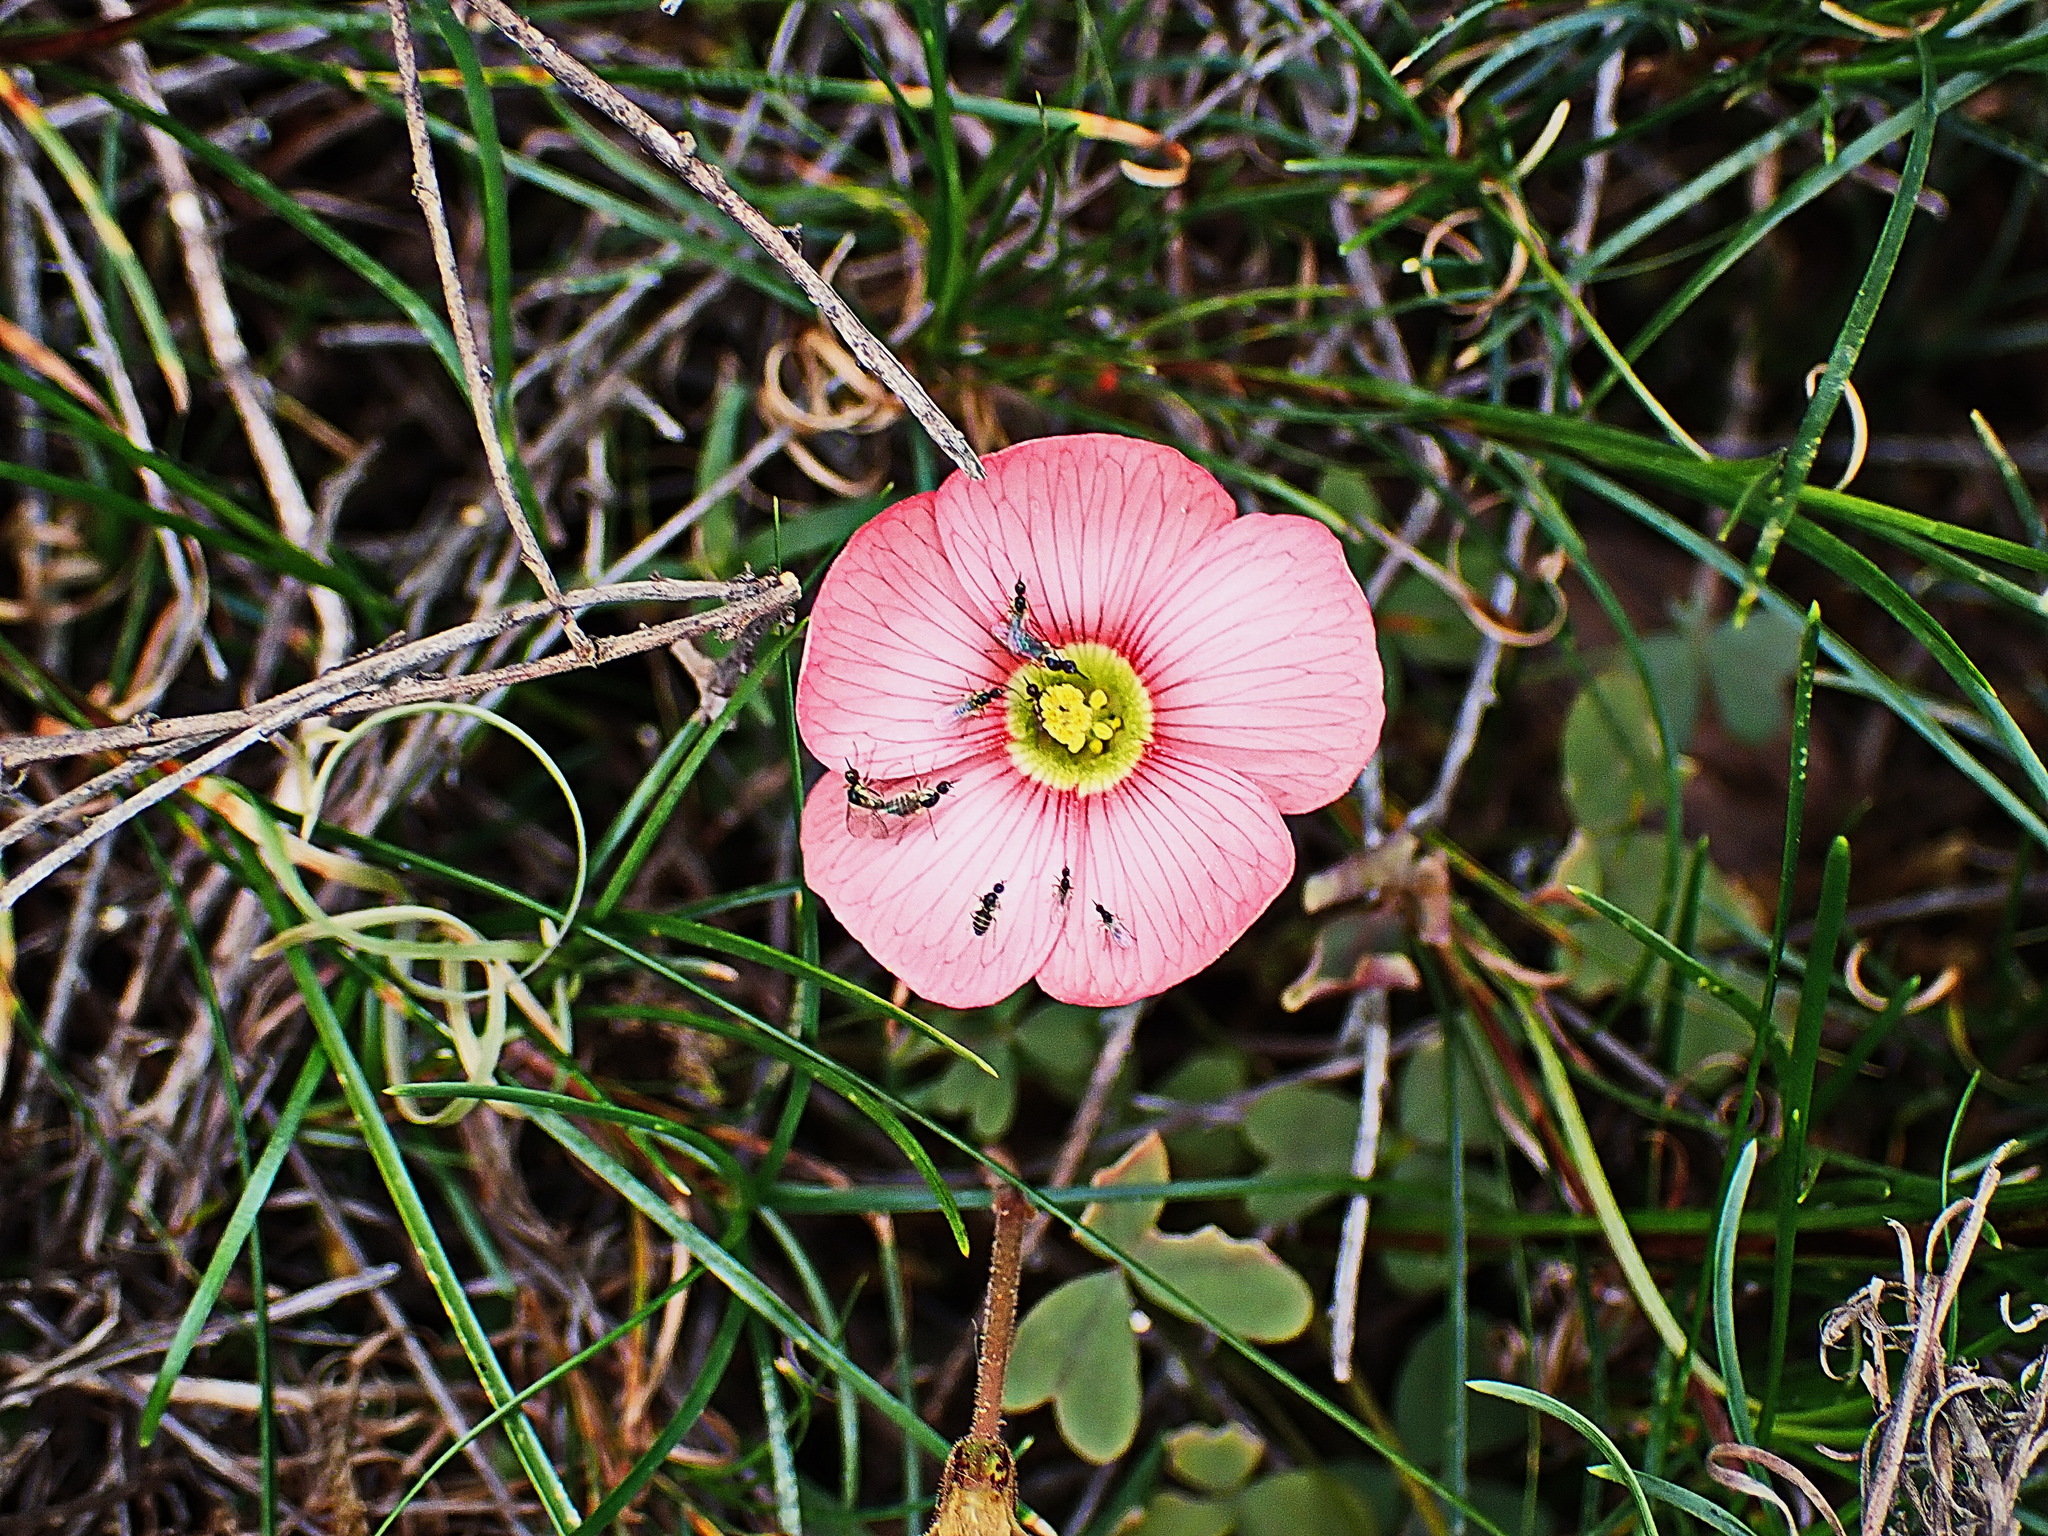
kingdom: Plantae
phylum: Tracheophyta
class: Magnoliopsida
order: Oxalidales
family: Oxalidaceae
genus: Oxalis
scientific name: Oxalis obtusa
